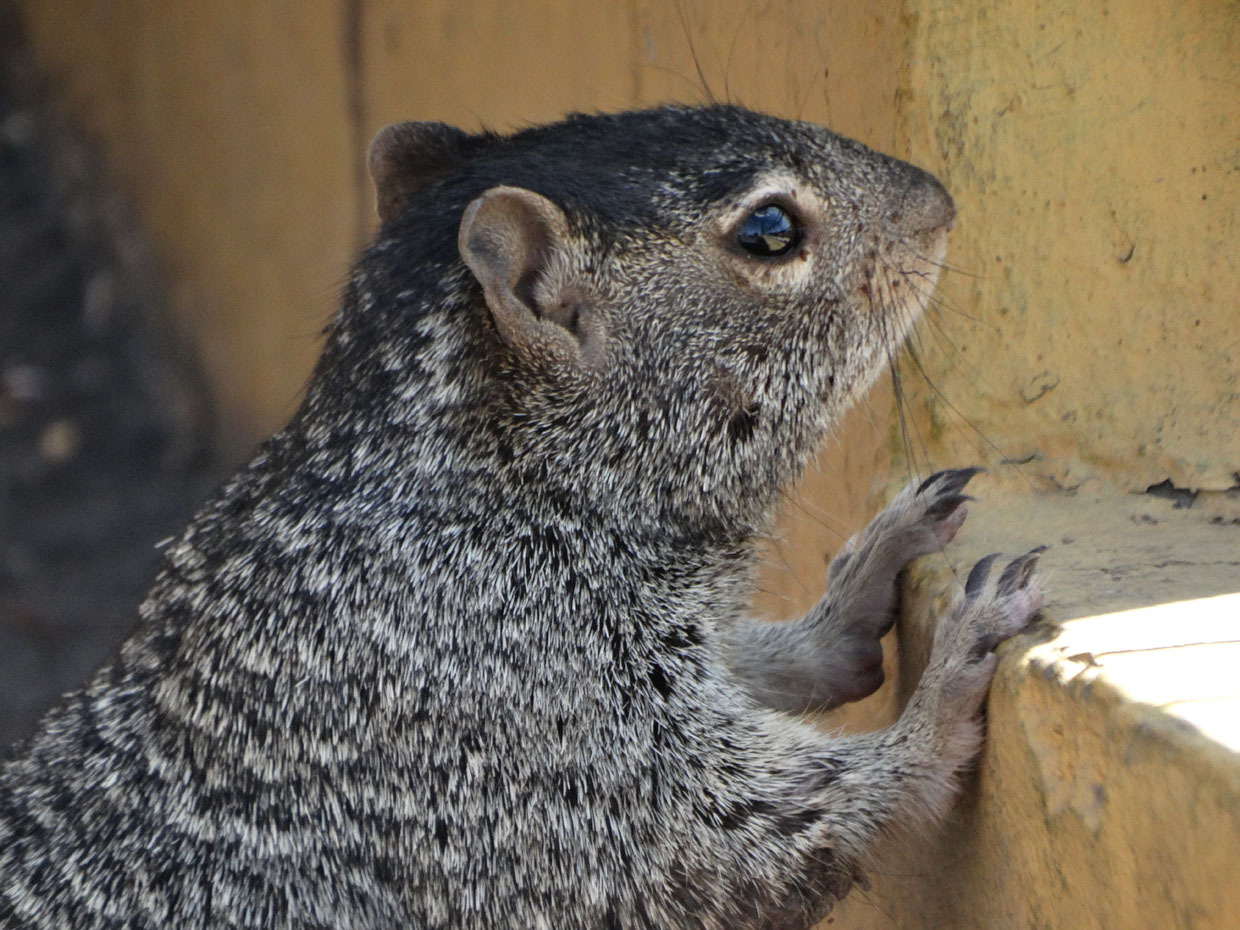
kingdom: Animalia
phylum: Chordata
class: Mammalia
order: Rodentia
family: Sciuridae
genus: Otospermophilus
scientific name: Otospermophilus variegatus
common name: Rock squirrel
